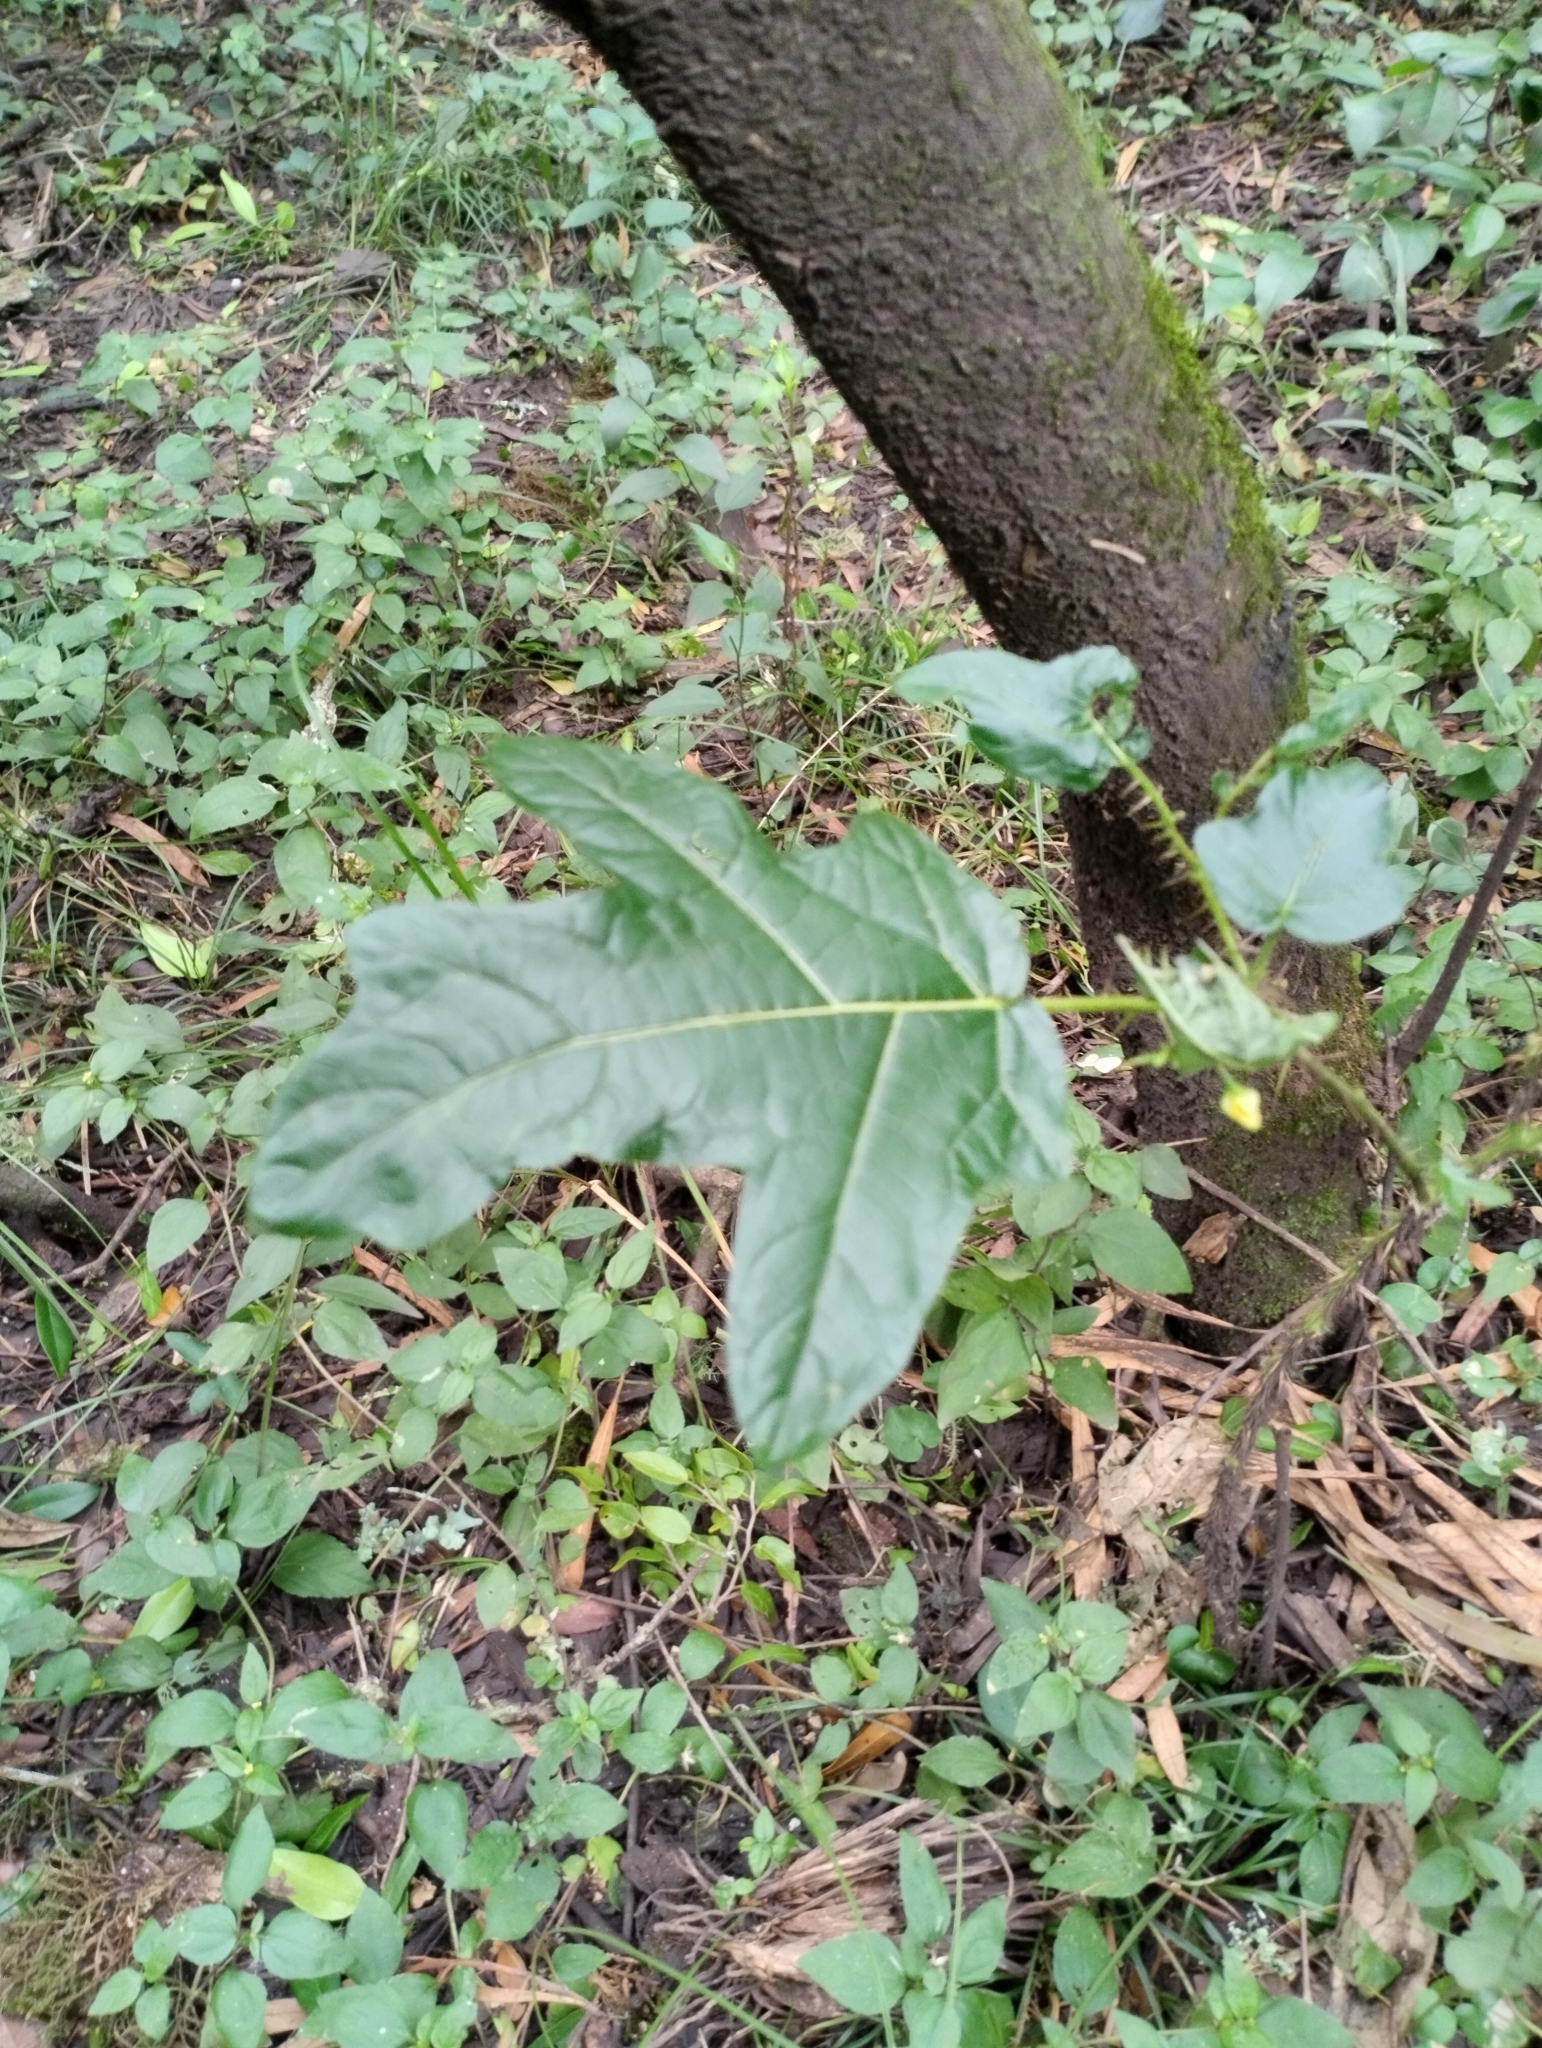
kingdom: Plantae
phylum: Tracheophyta
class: Magnoliopsida
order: Solanales
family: Solanaceae
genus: Solanum
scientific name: Solanum atropurpureum
